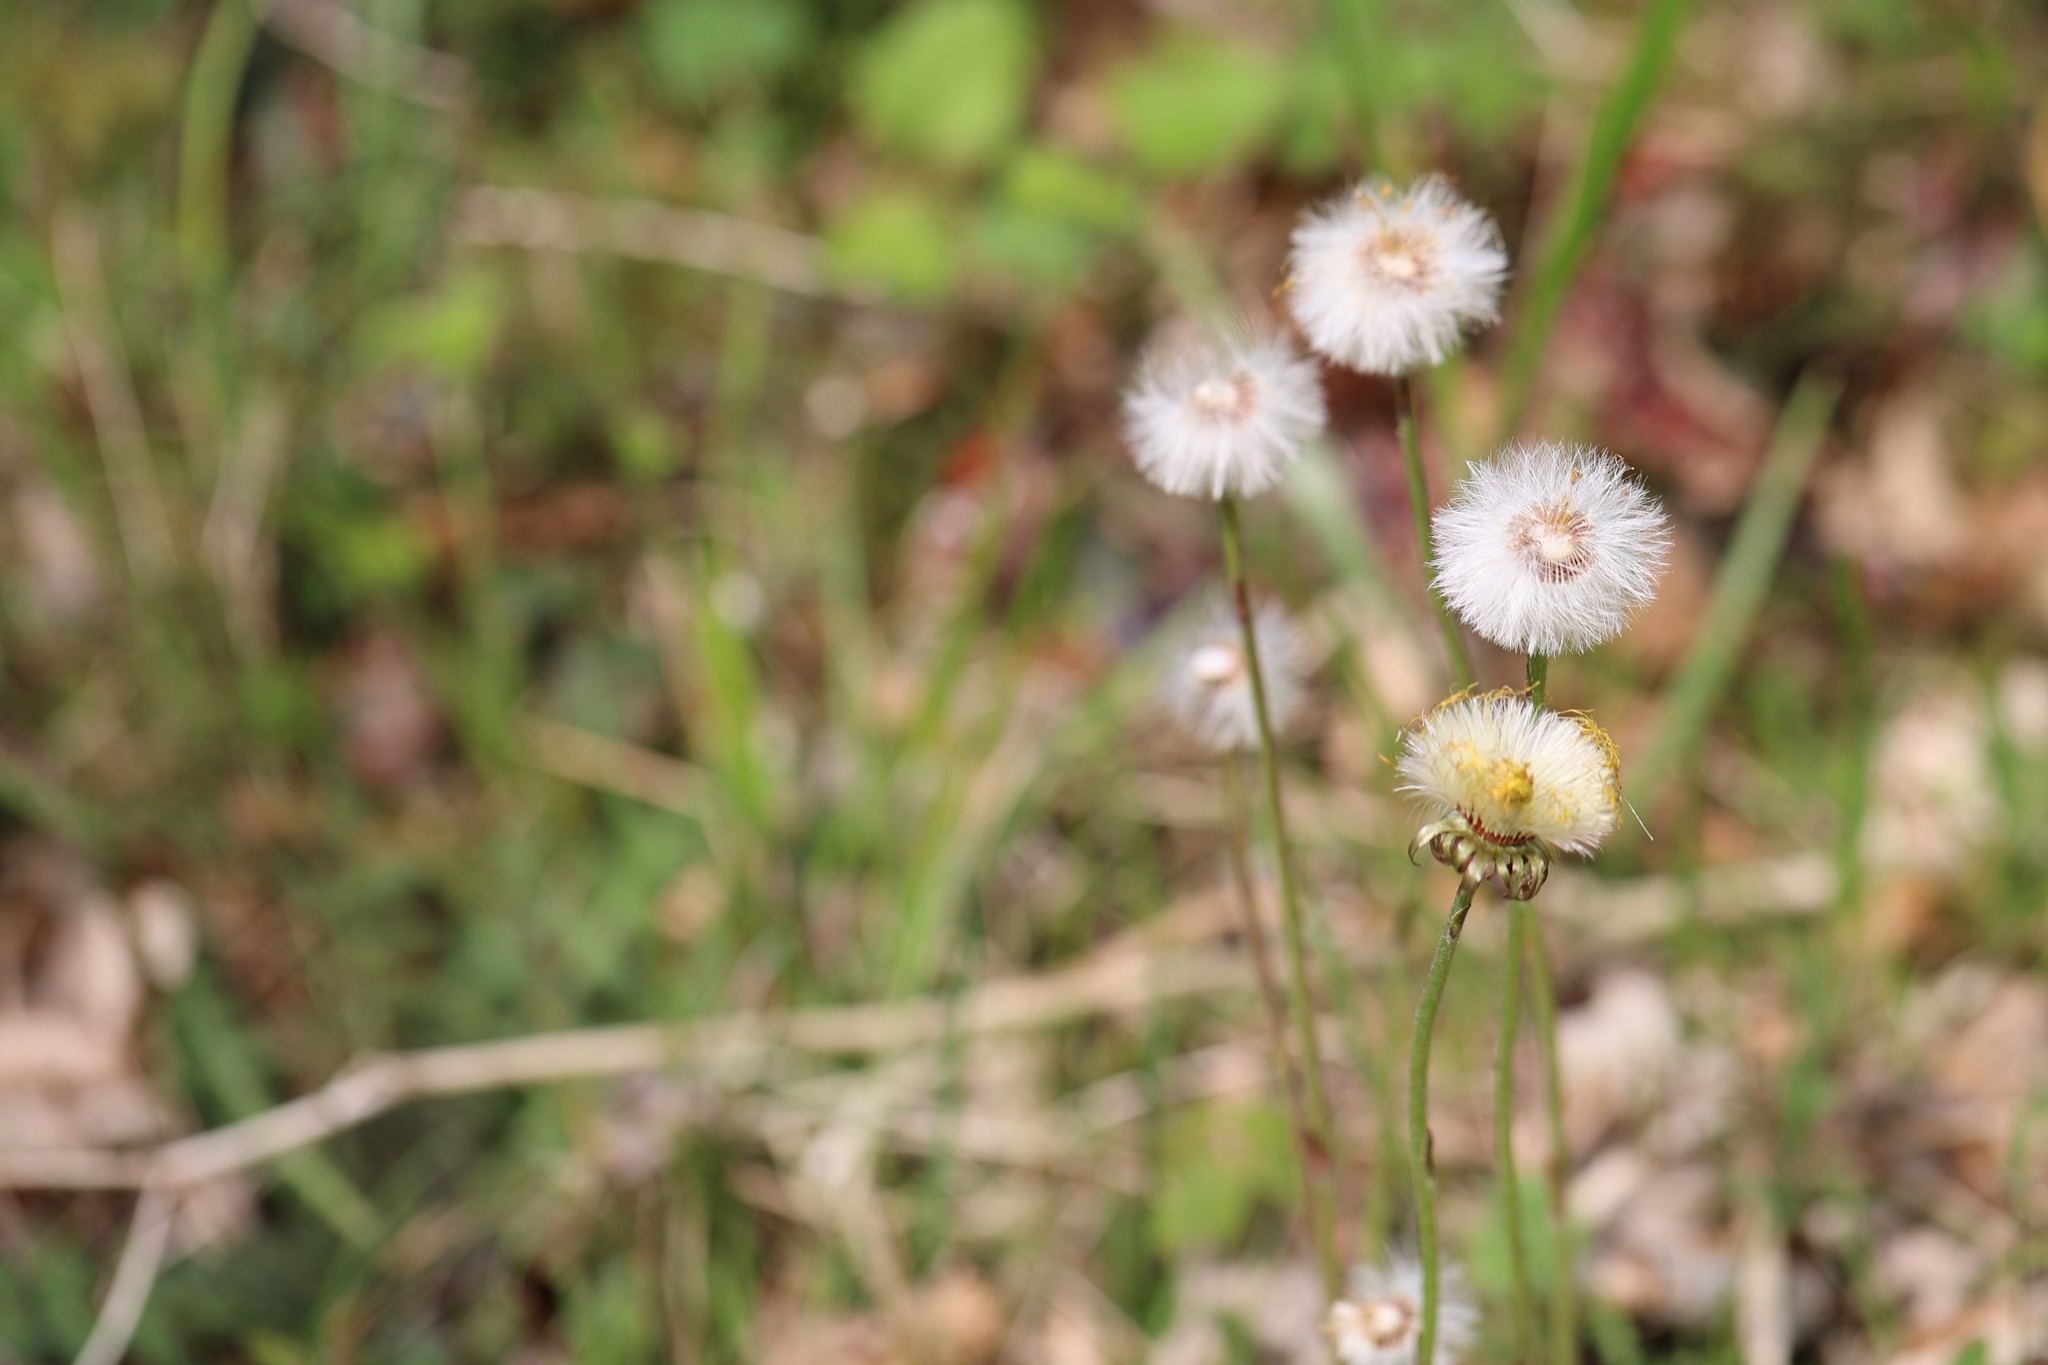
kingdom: Plantae
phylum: Tracheophyta
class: Magnoliopsida
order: Asterales
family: Asteraceae
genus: Tussilago
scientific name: Tussilago farfara
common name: Coltsfoot
